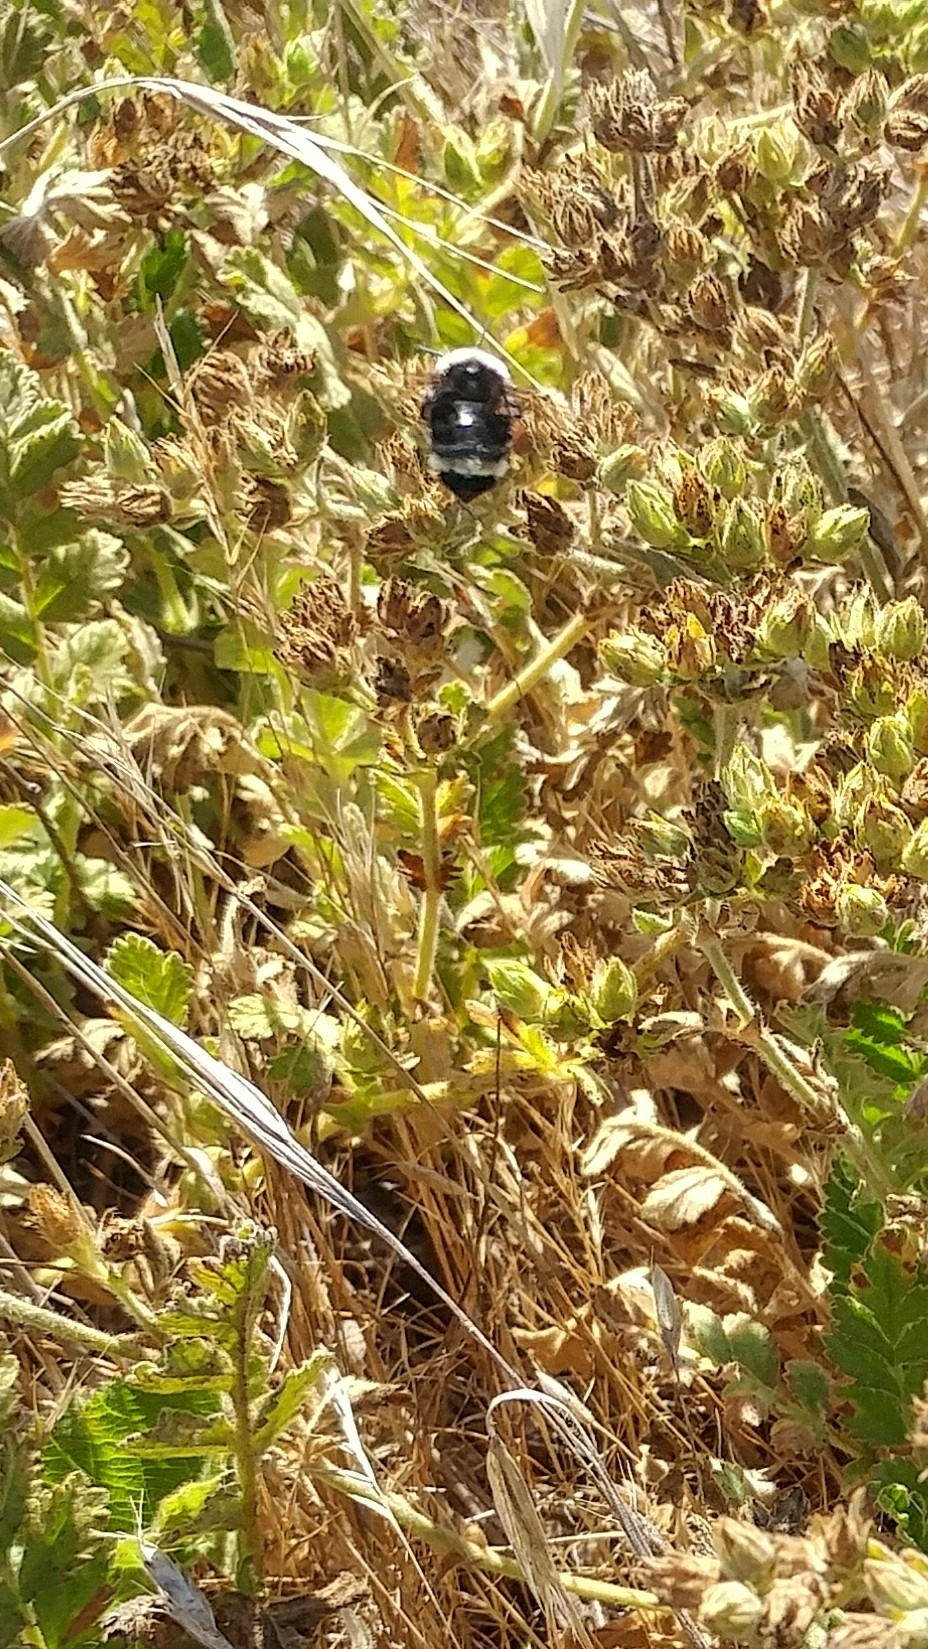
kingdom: Animalia
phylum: Arthropoda
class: Insecta
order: Hymenoptera
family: Apidae
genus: Bombus
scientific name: Bombus vosnesenskii
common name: Vosnesensky bumble bee
